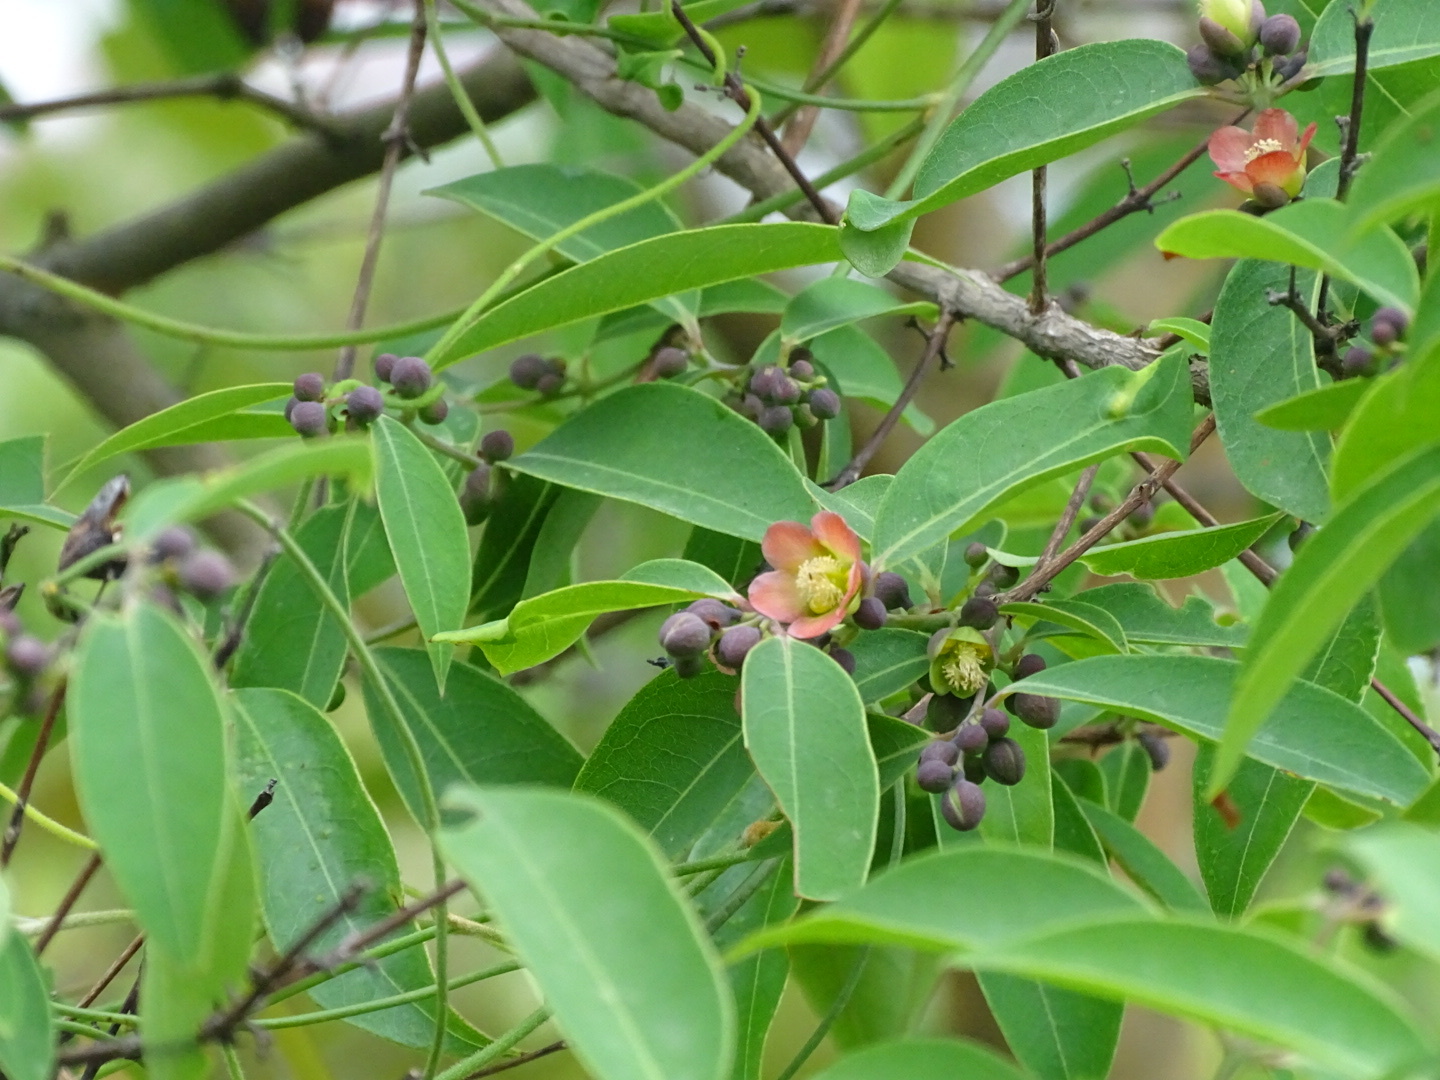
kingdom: Plantae
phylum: Tracheophyta
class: Magnoliopsida
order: Malpighiales
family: Hypericaceae
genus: Cratoxylum
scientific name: Cratoxylum cochinchinense
